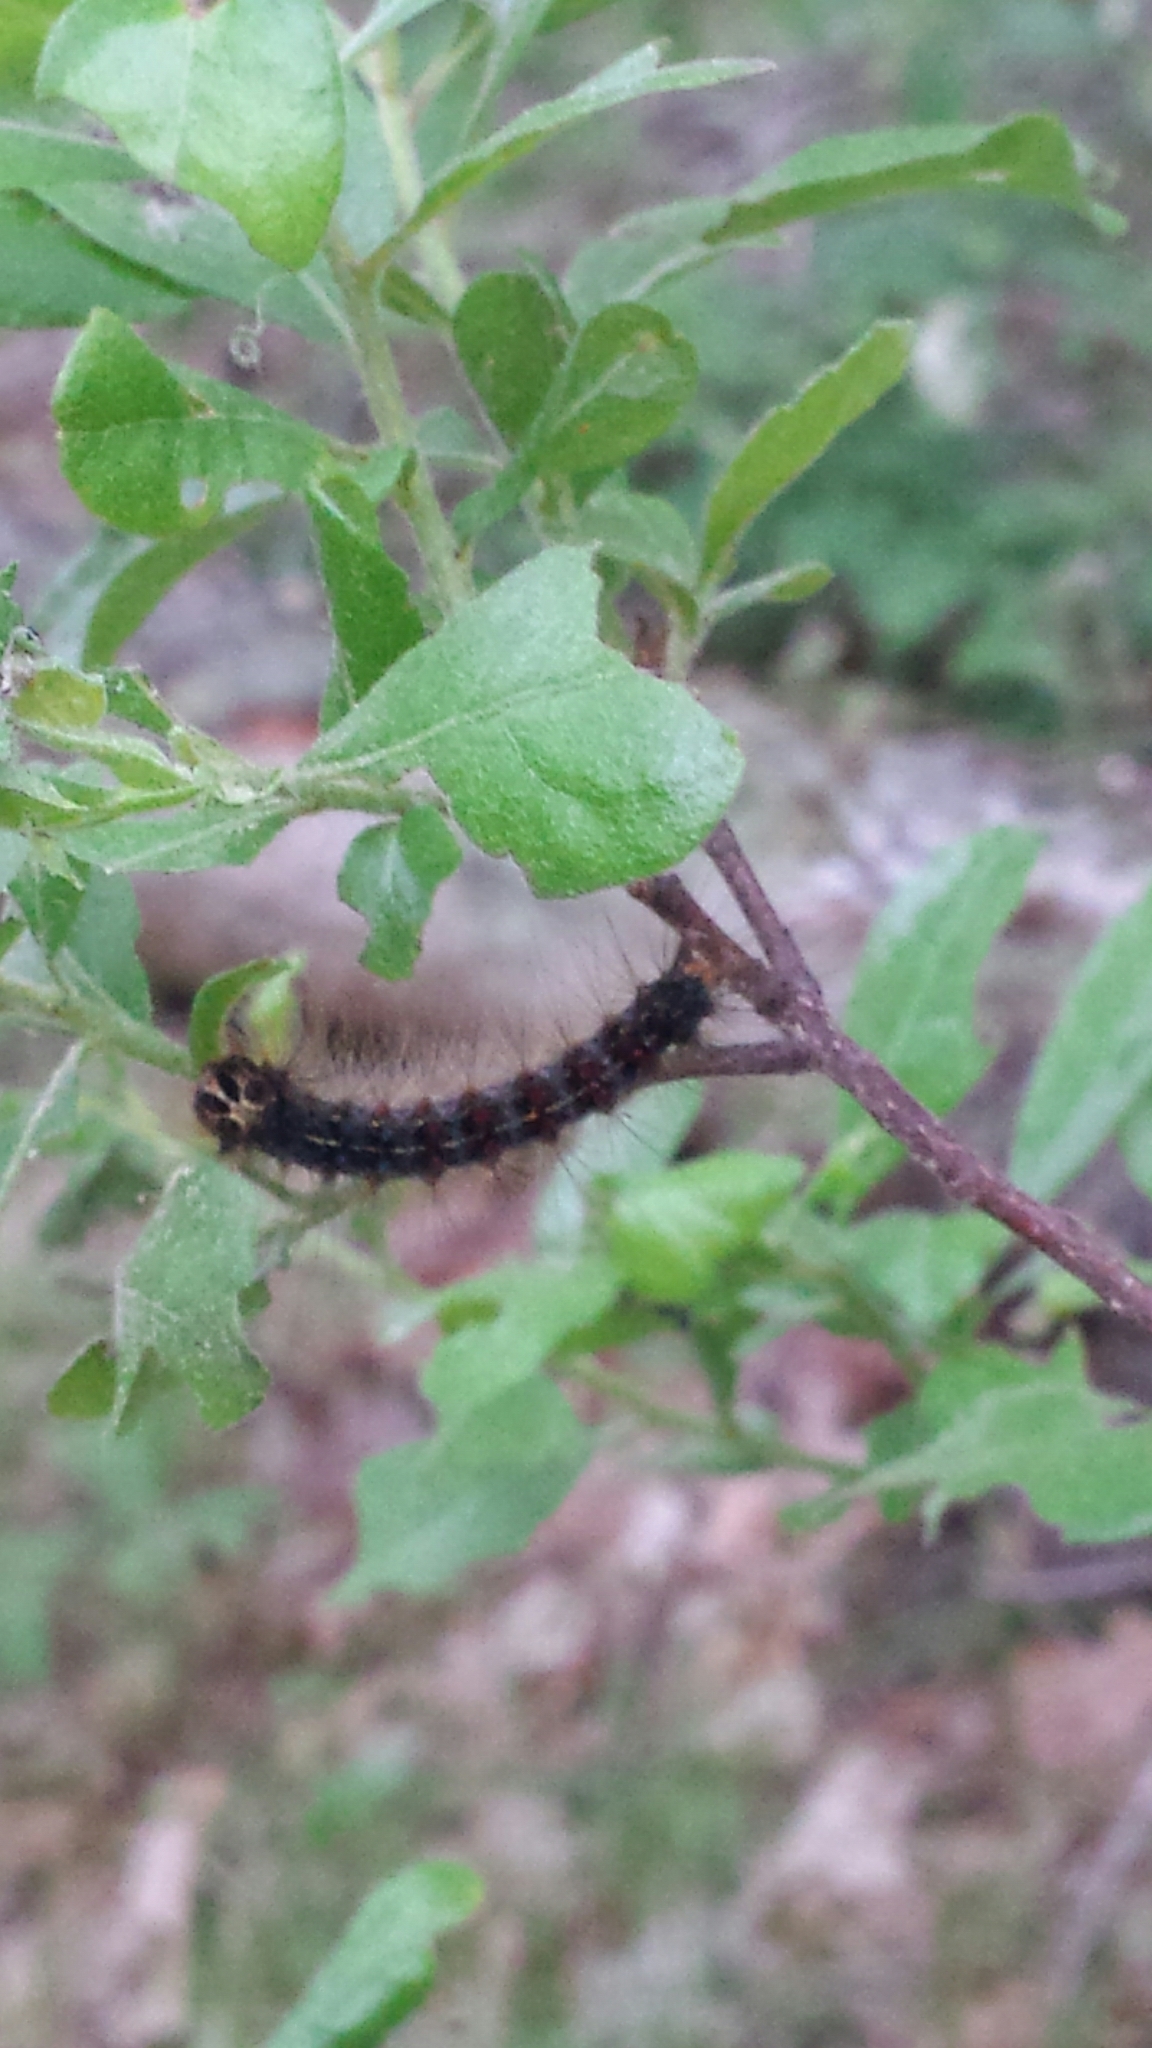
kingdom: Animalia
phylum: Arthropoda
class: Insecta
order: Lepidoptera
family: Erebidae
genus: Lymantria
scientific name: Lymantria dispar
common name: Gypsy moth
